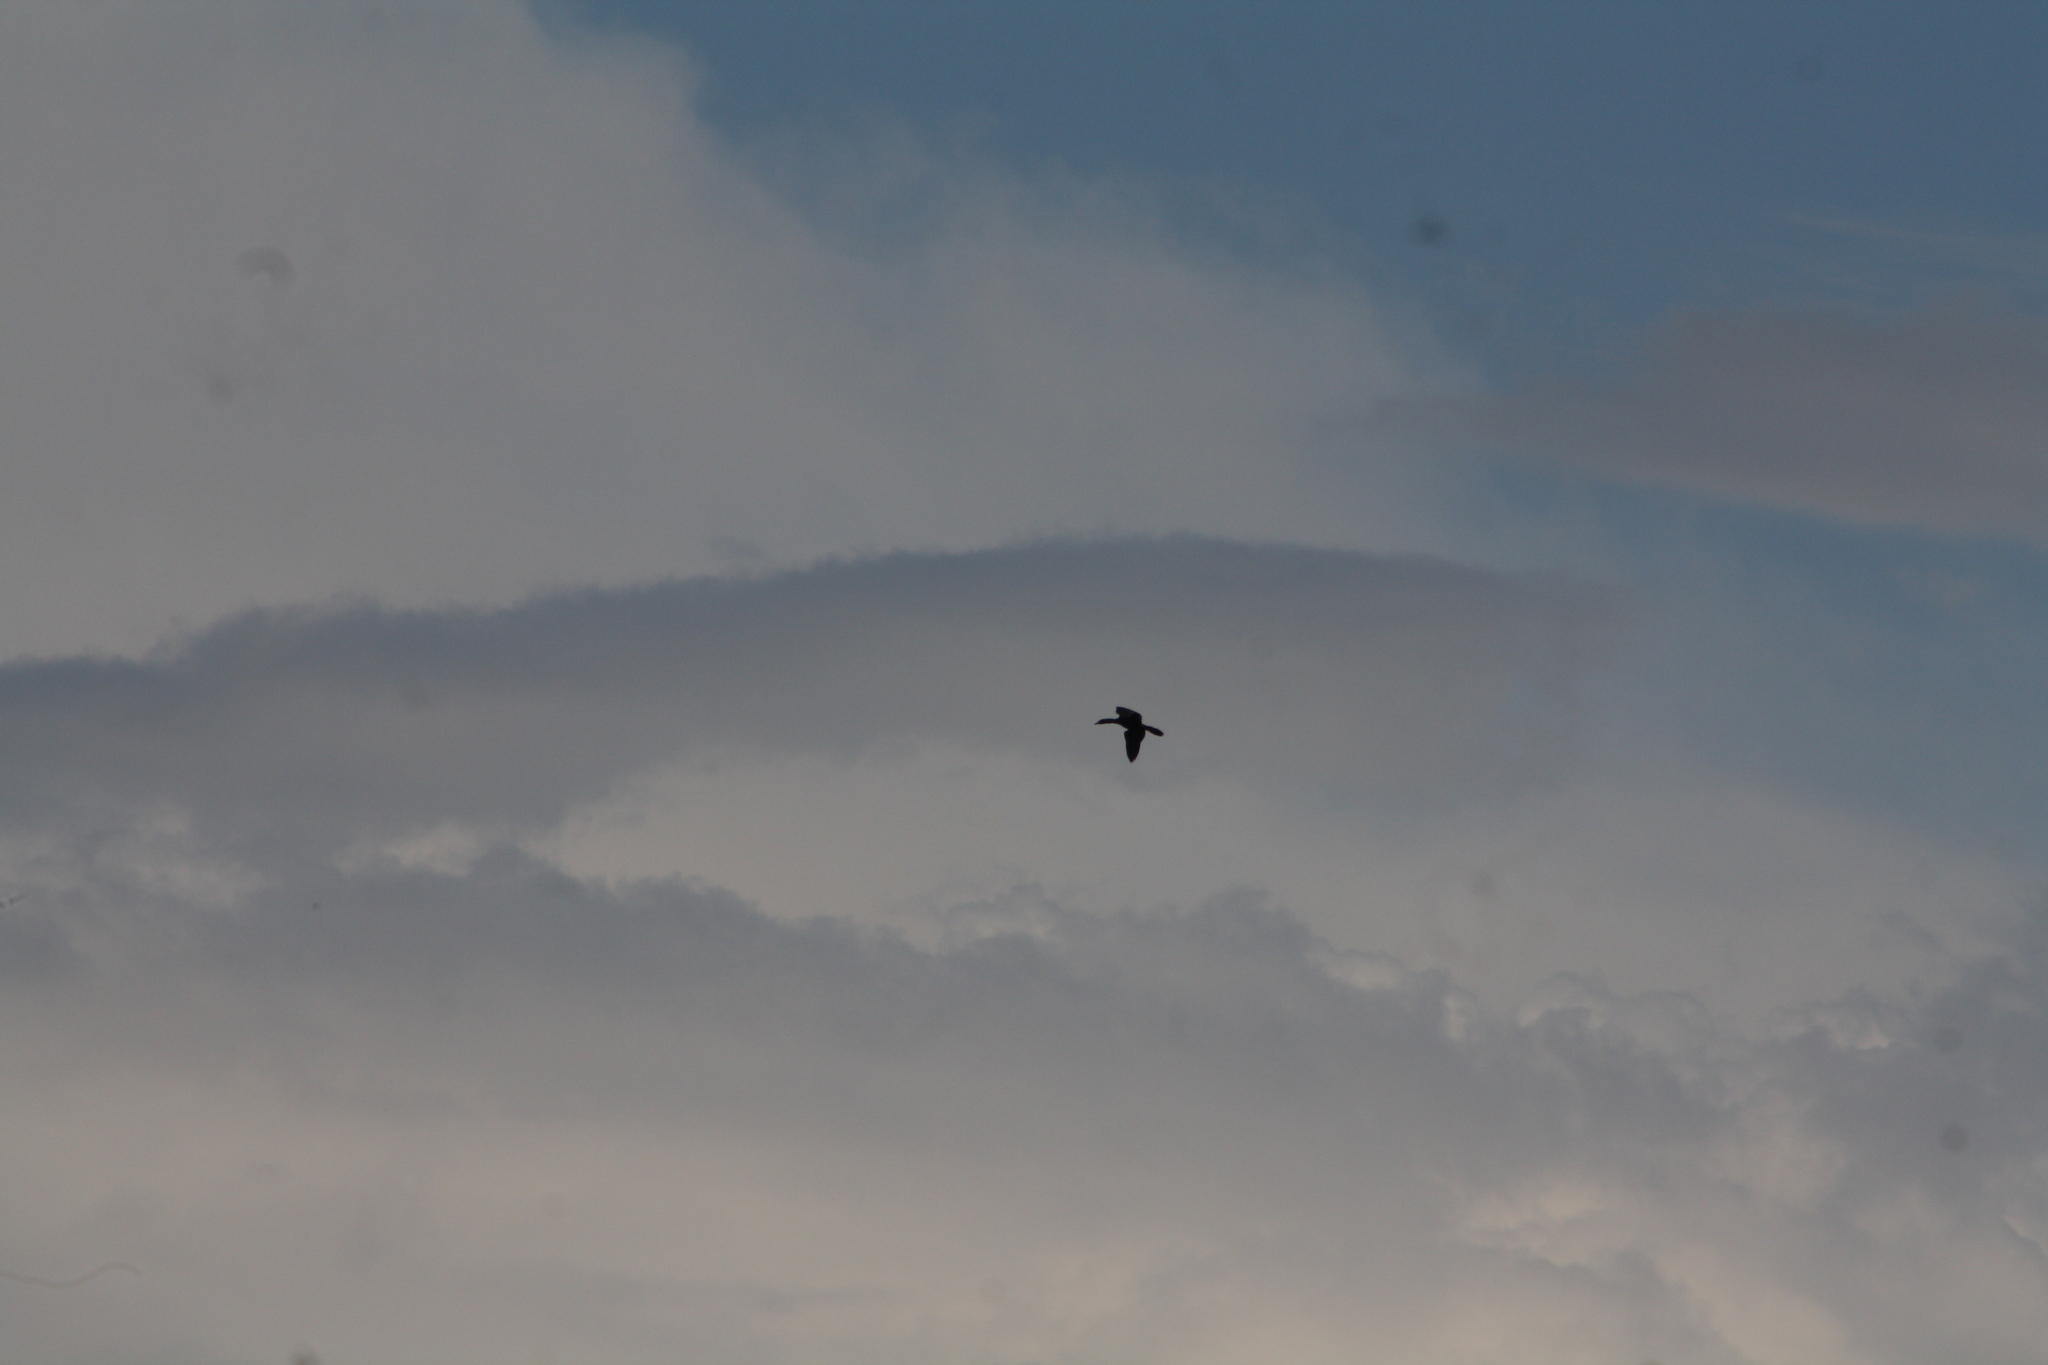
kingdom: Animalia
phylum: Chordata
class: Aves
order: Suliformes
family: Phalacrocoracidae
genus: Microcarbo
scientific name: Microcarbo pygmaeus
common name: Pygmy cormorant
